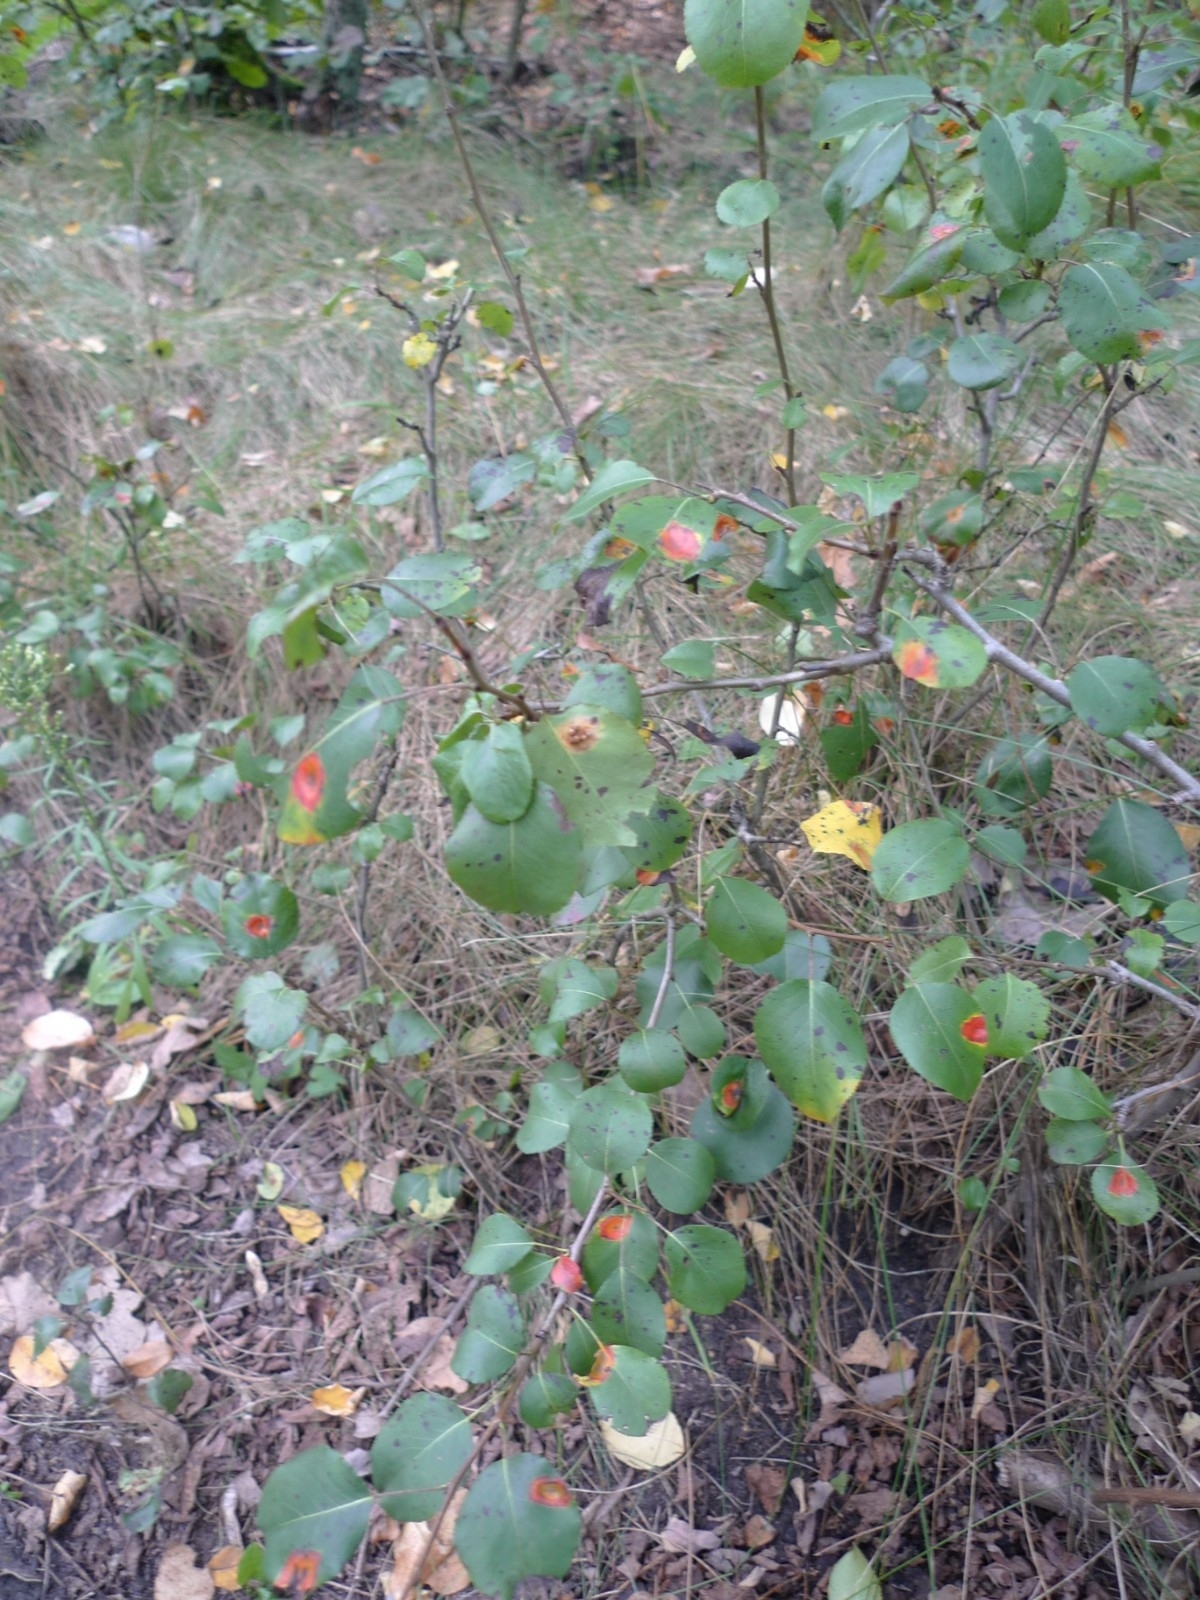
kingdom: Fungi
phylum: Basidiomycota
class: Pucciniomycetes
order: Pucciniales
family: Gymnosporangiaceae
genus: Gymnosporangium
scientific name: Gymnosporangium sabinae
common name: Pear trellis rust fungus
